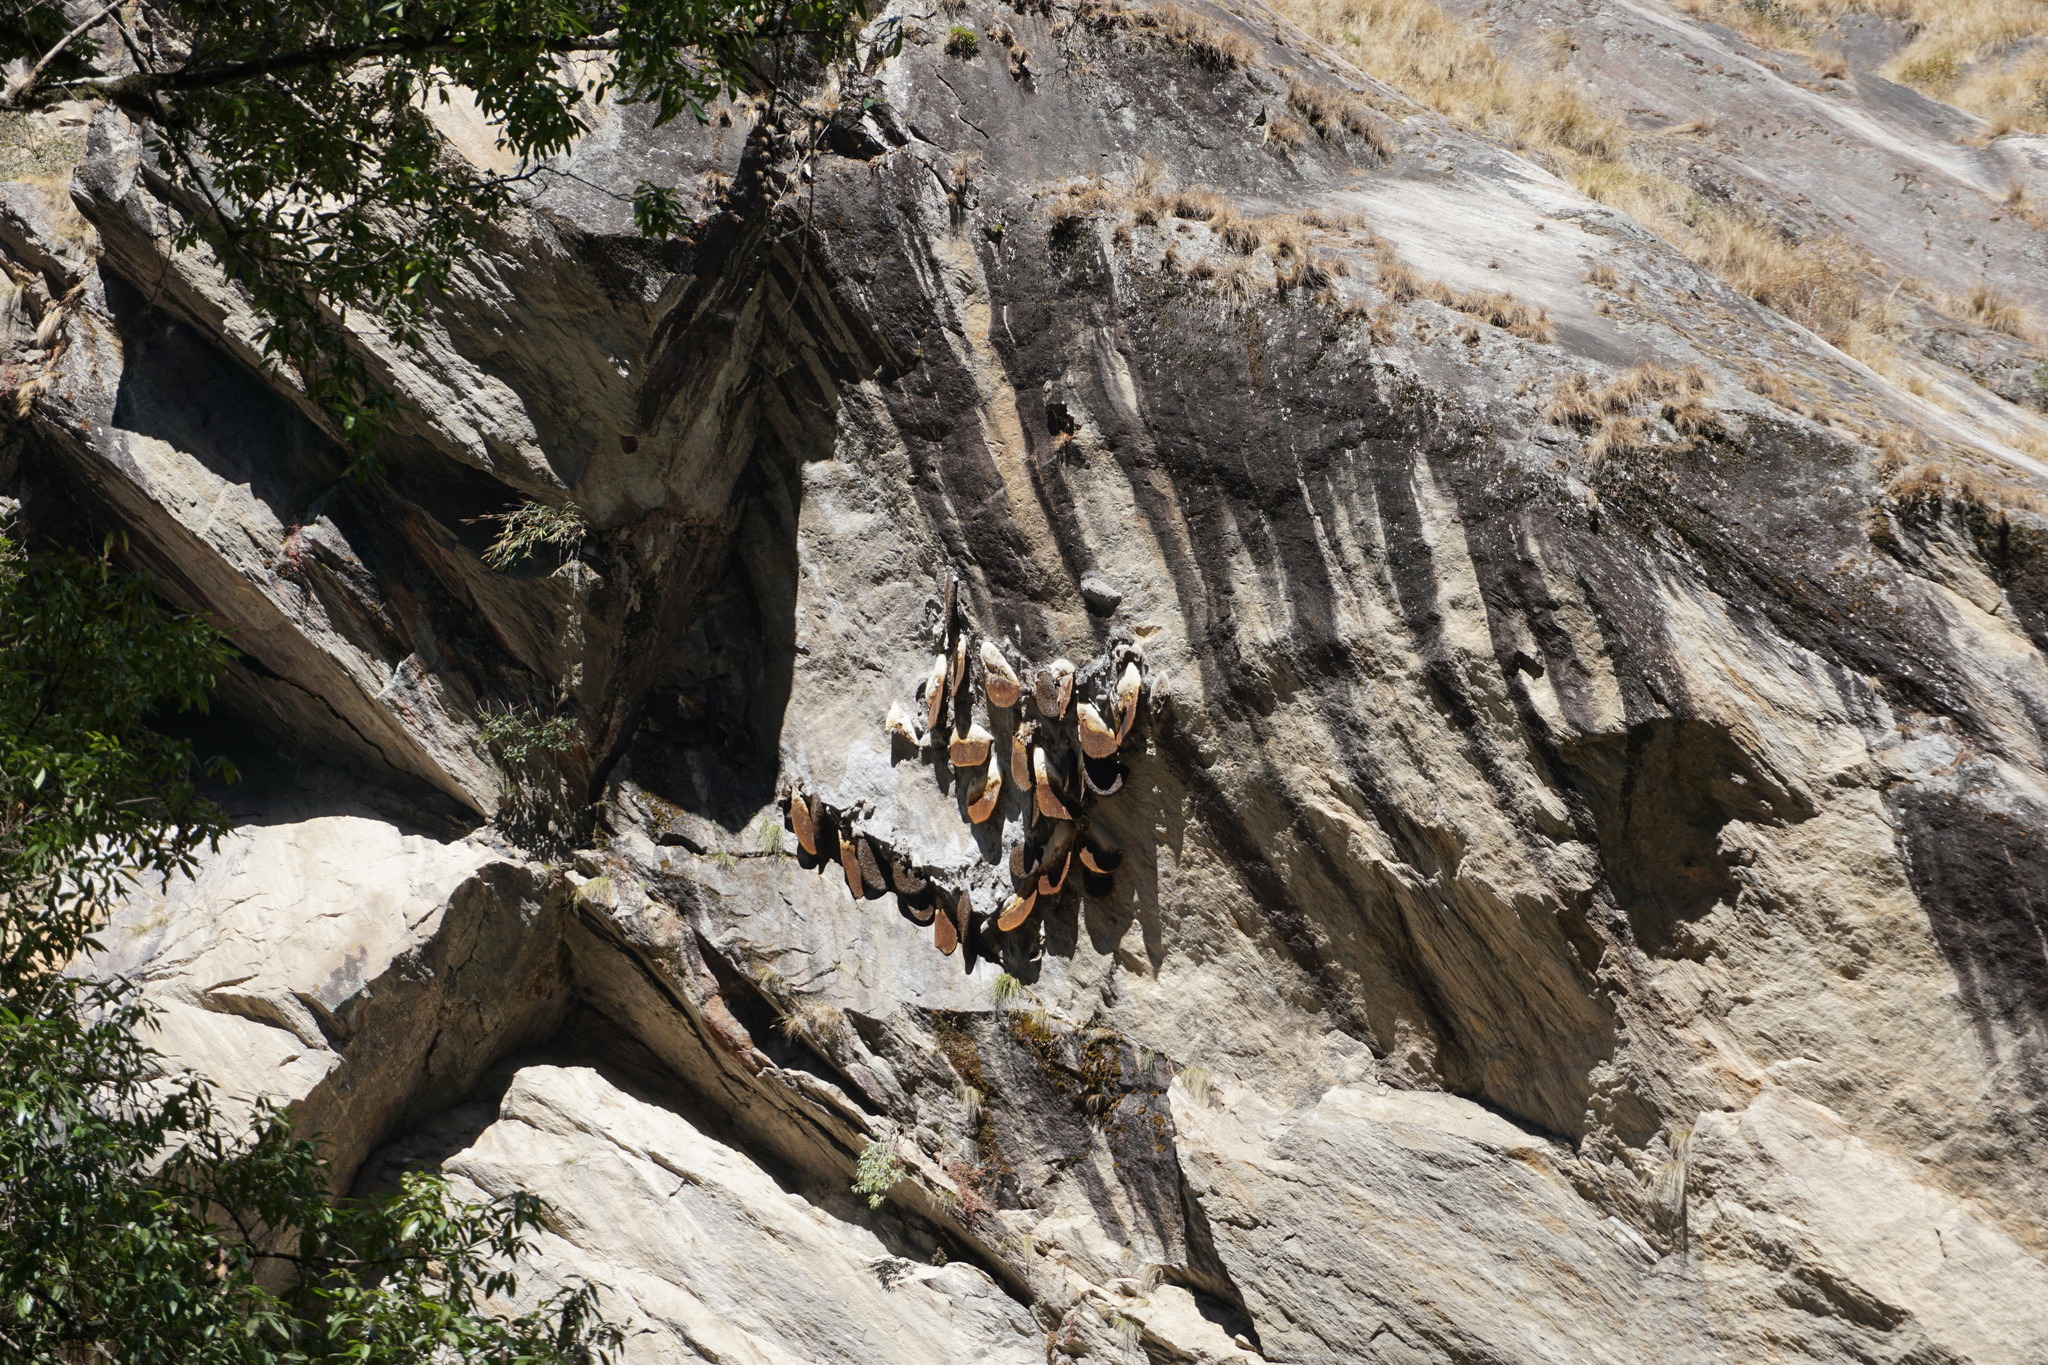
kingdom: Animalia
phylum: Arthropoda
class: Insecta
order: Hymenoptera
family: Apidae
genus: Apis
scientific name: Apis laboriosa
